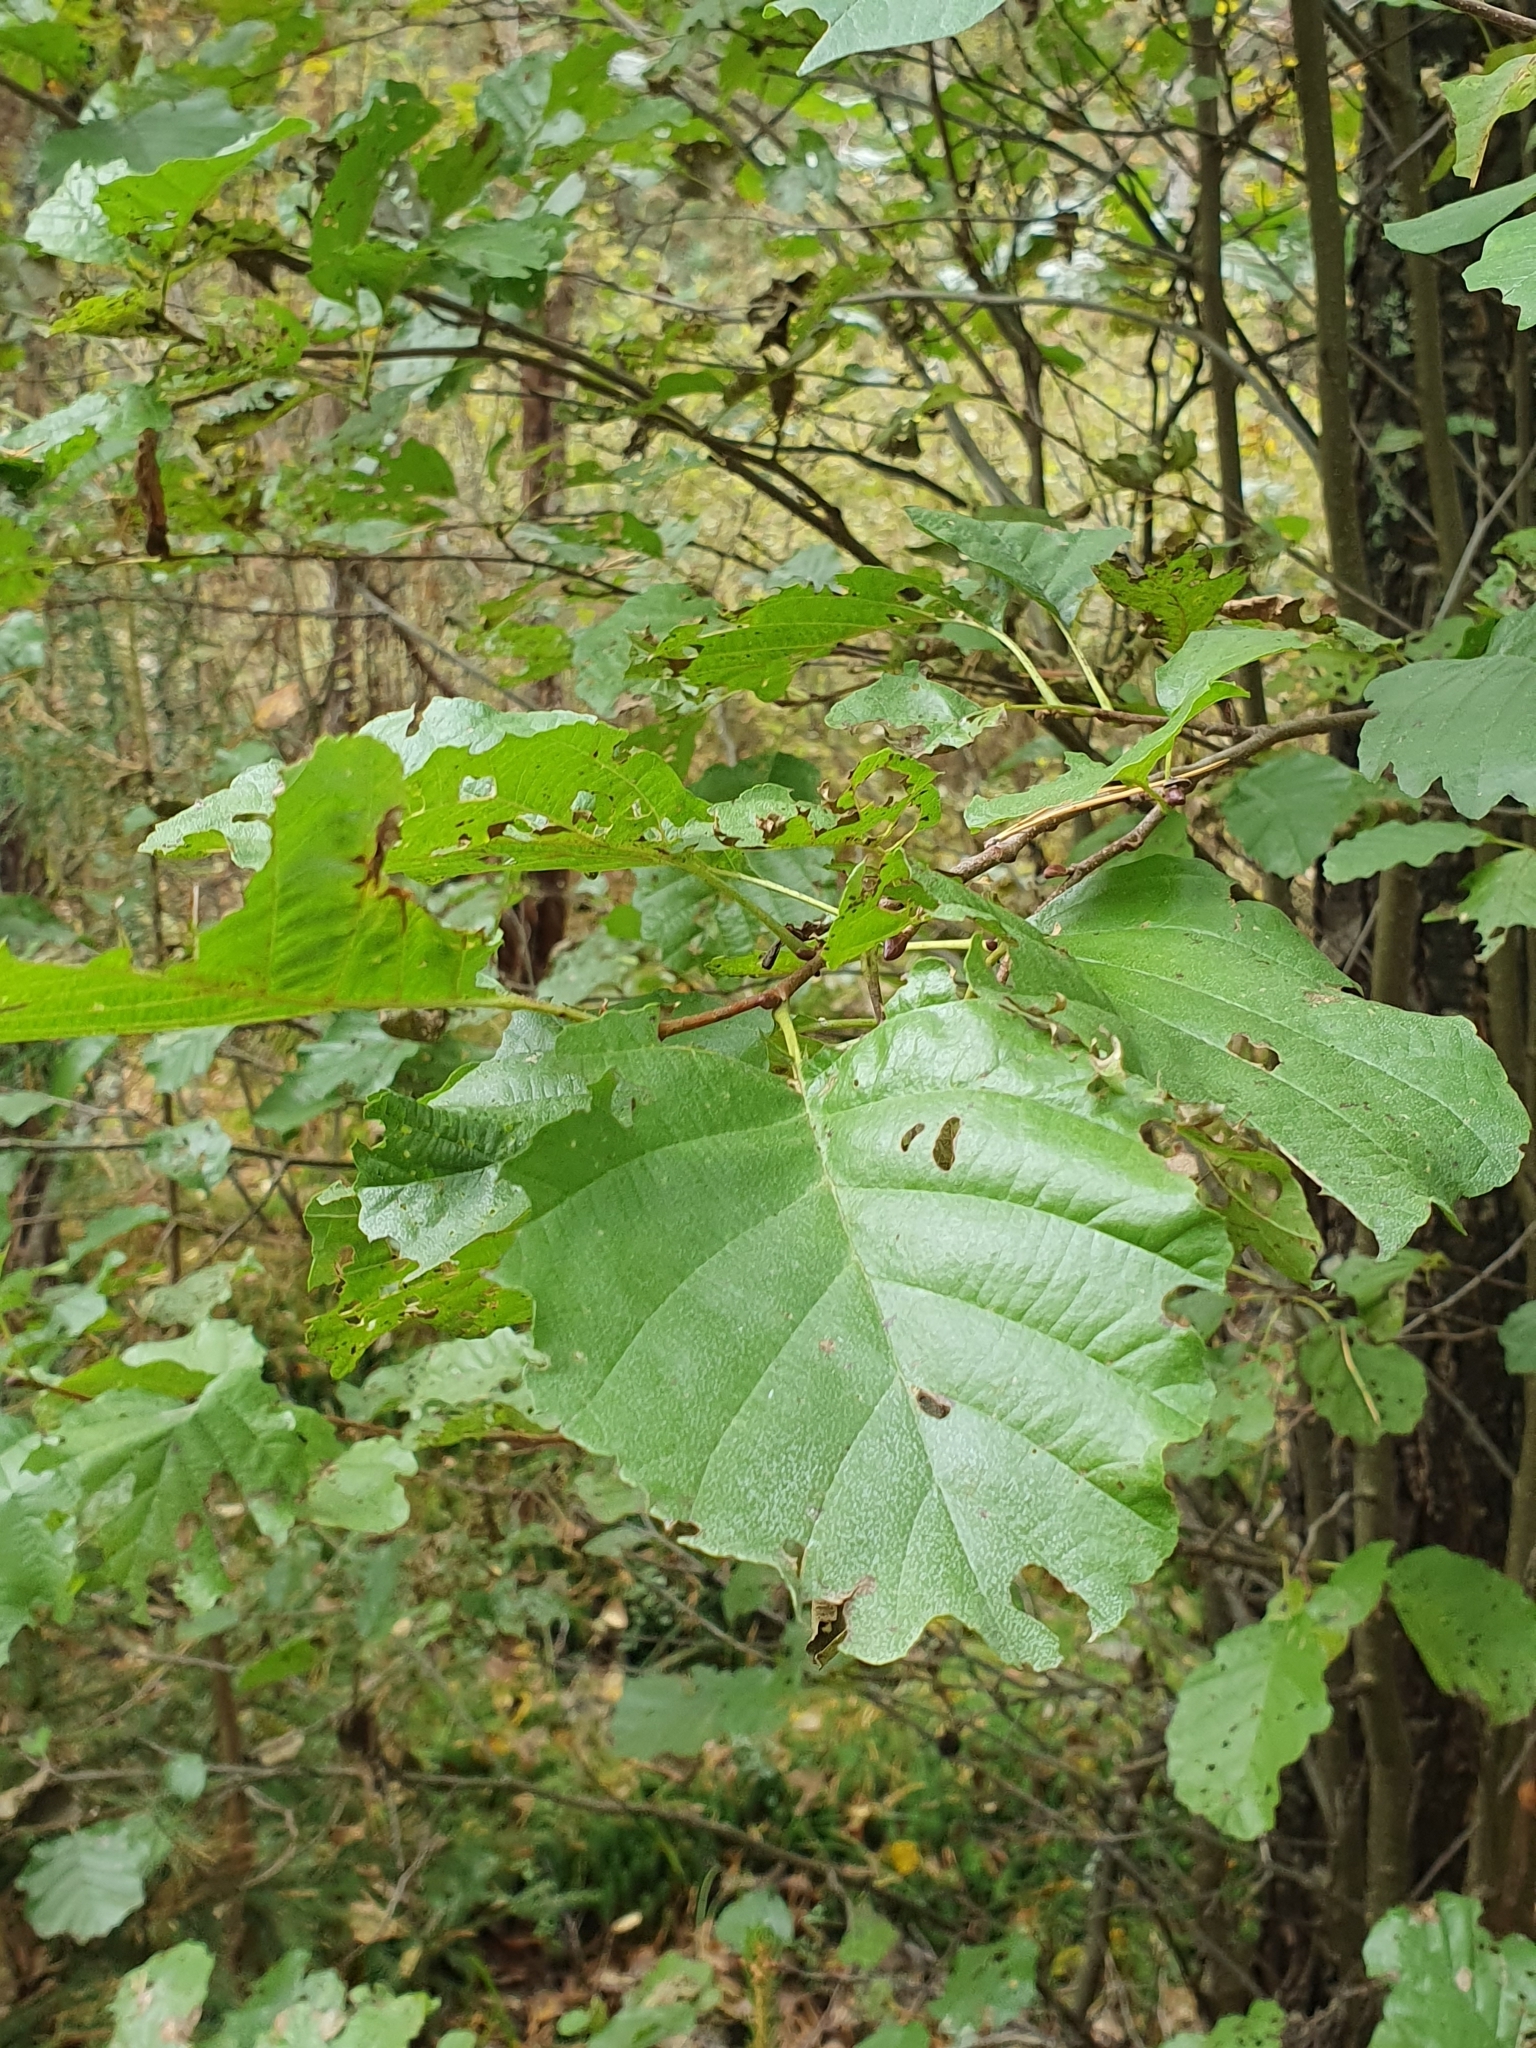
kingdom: Plantae
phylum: Tracheophyta
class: Magnoliopsida
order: Fagales
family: Betulaceae
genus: Alnus
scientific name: Alnus glutinosa
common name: Black alder
